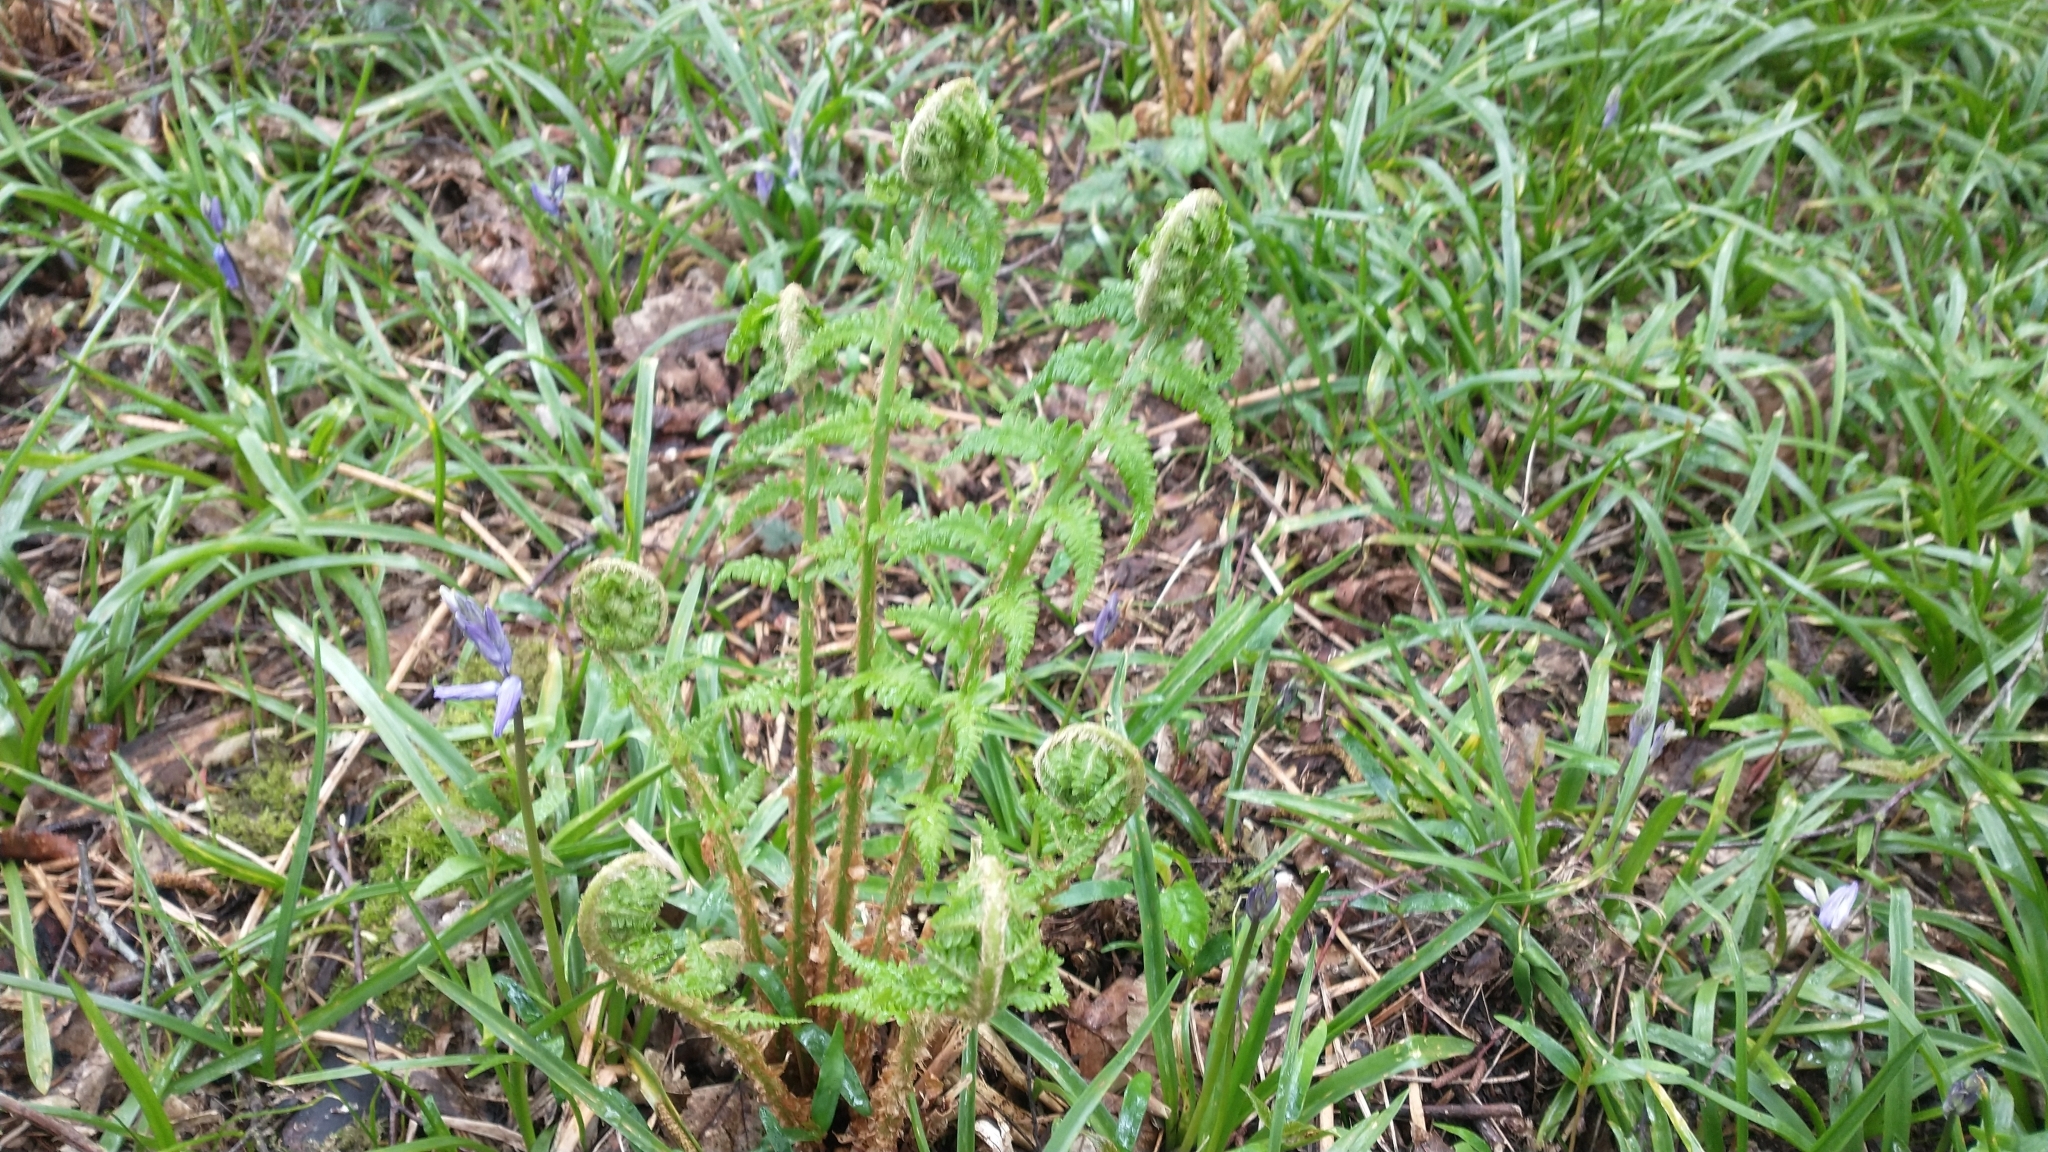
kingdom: Plantae
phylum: Tracheophyta
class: Polypodiopsida
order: Polypodiales
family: Dryopteridaceae
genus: Dryopteris
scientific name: Dryopteris filix-mas
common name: Male fern
